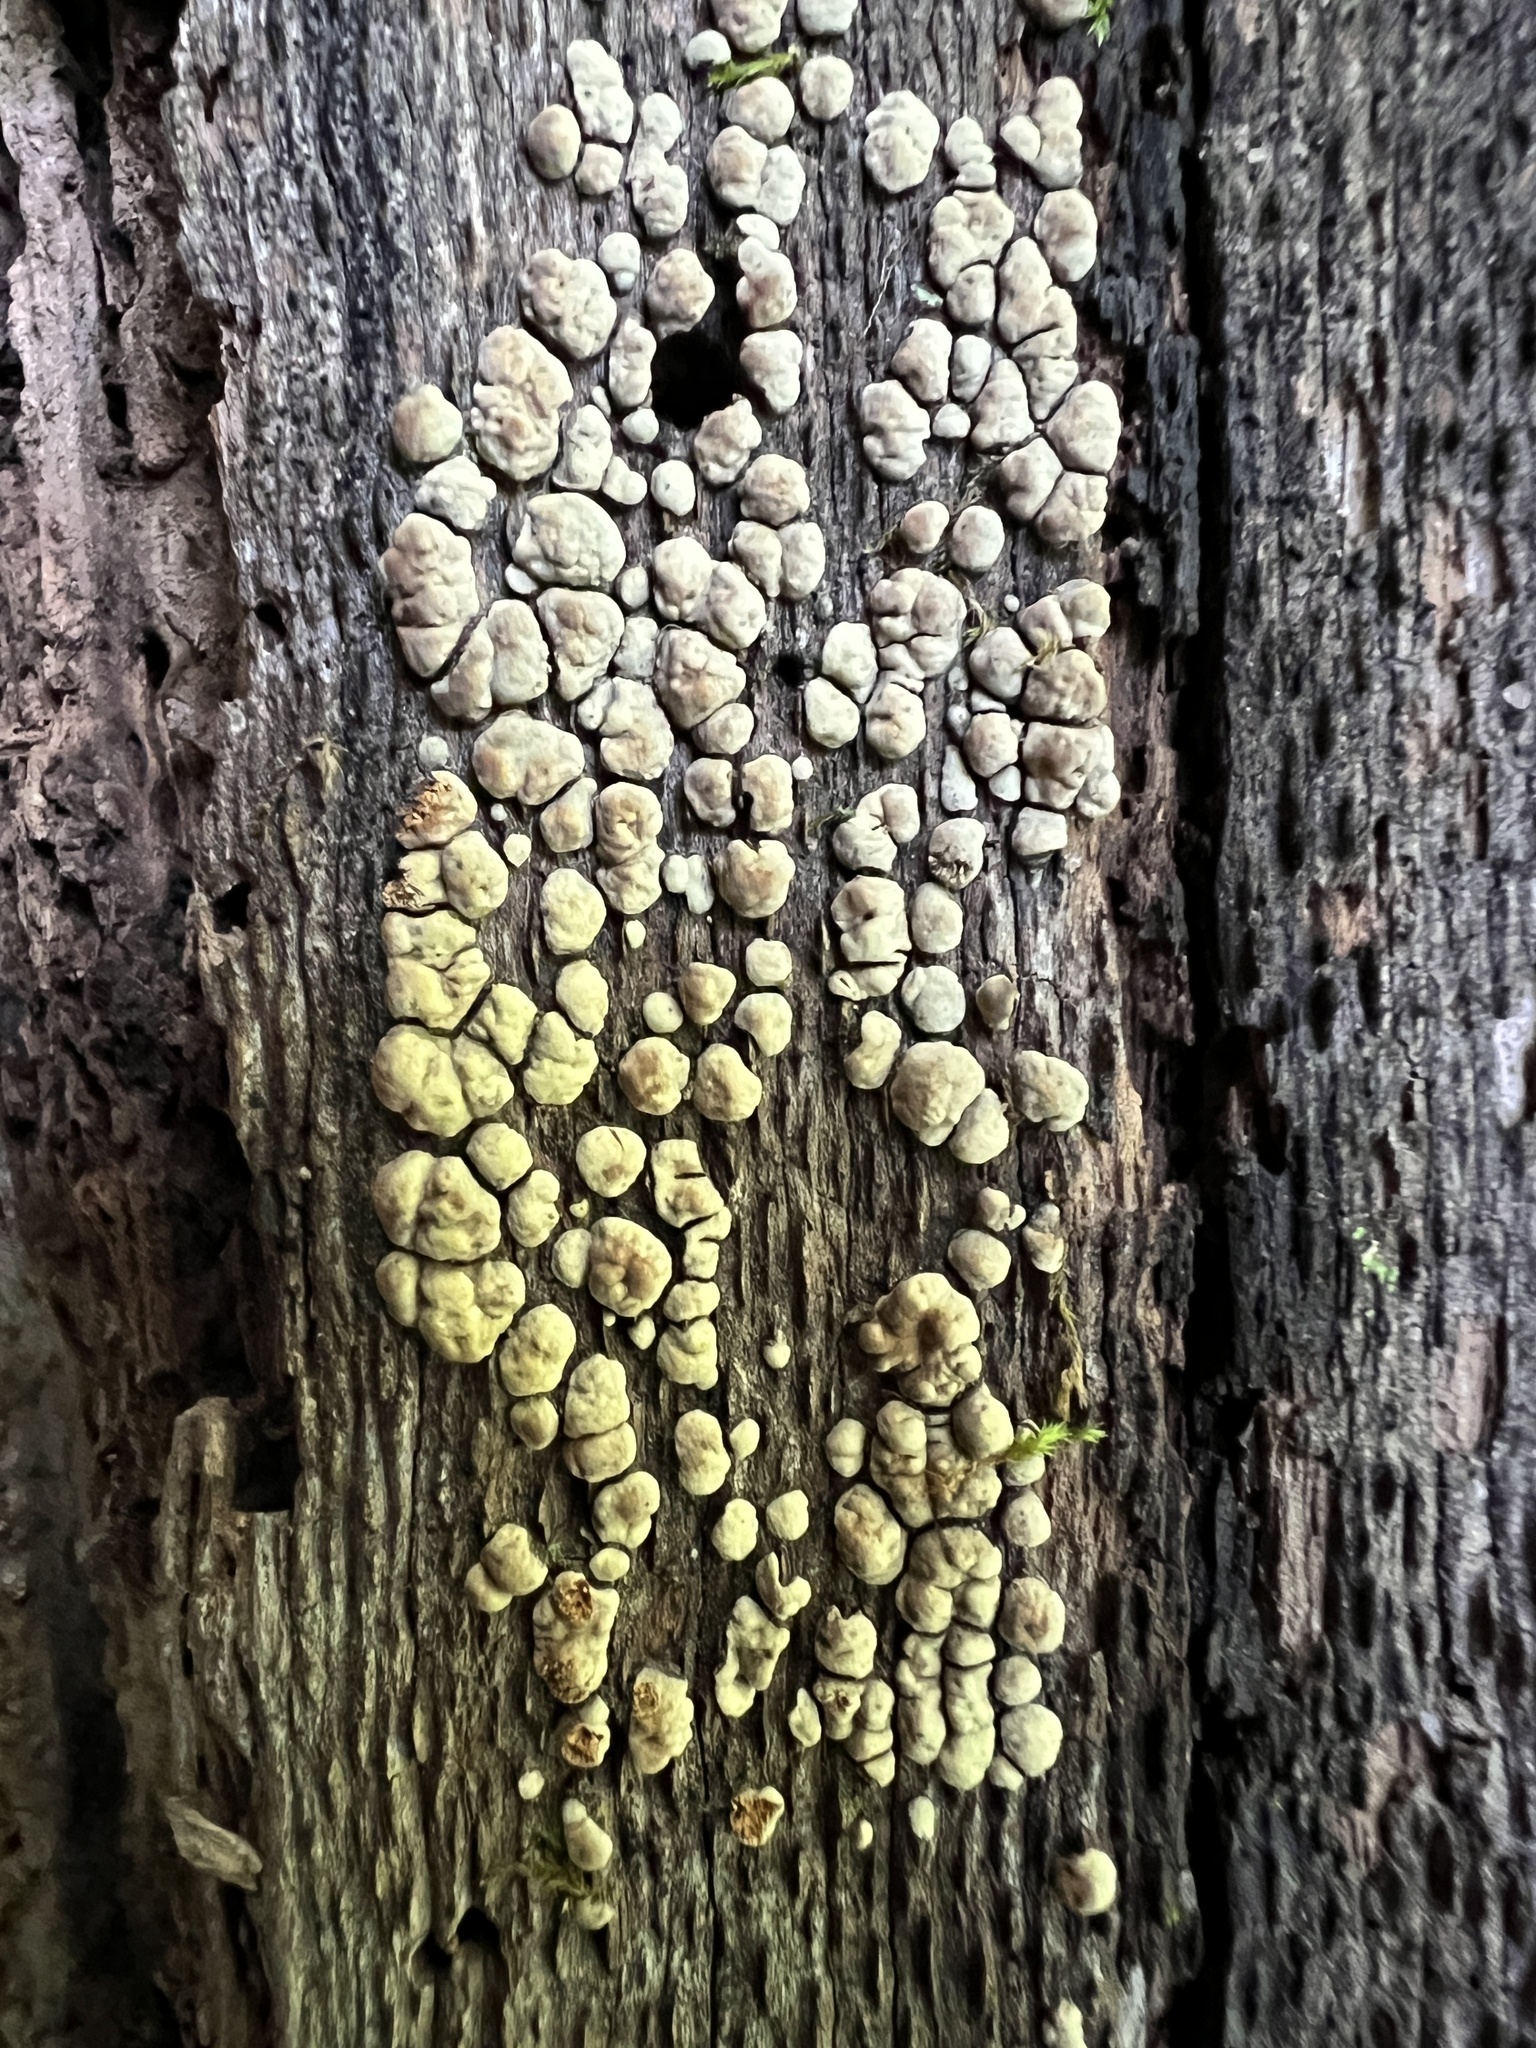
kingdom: Fungi
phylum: Basidiomycota
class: Agaricomycetes
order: Russulales
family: Stereaceae
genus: Xylobolus
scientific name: Xylobolus frustulatus
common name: Ceramic parchment
